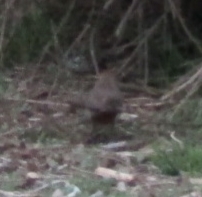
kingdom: Animalia
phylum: Chordata
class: Aves
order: Passeriformes
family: Passerellidae
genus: Melozone
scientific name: Melozone crissalis
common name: California towhee
